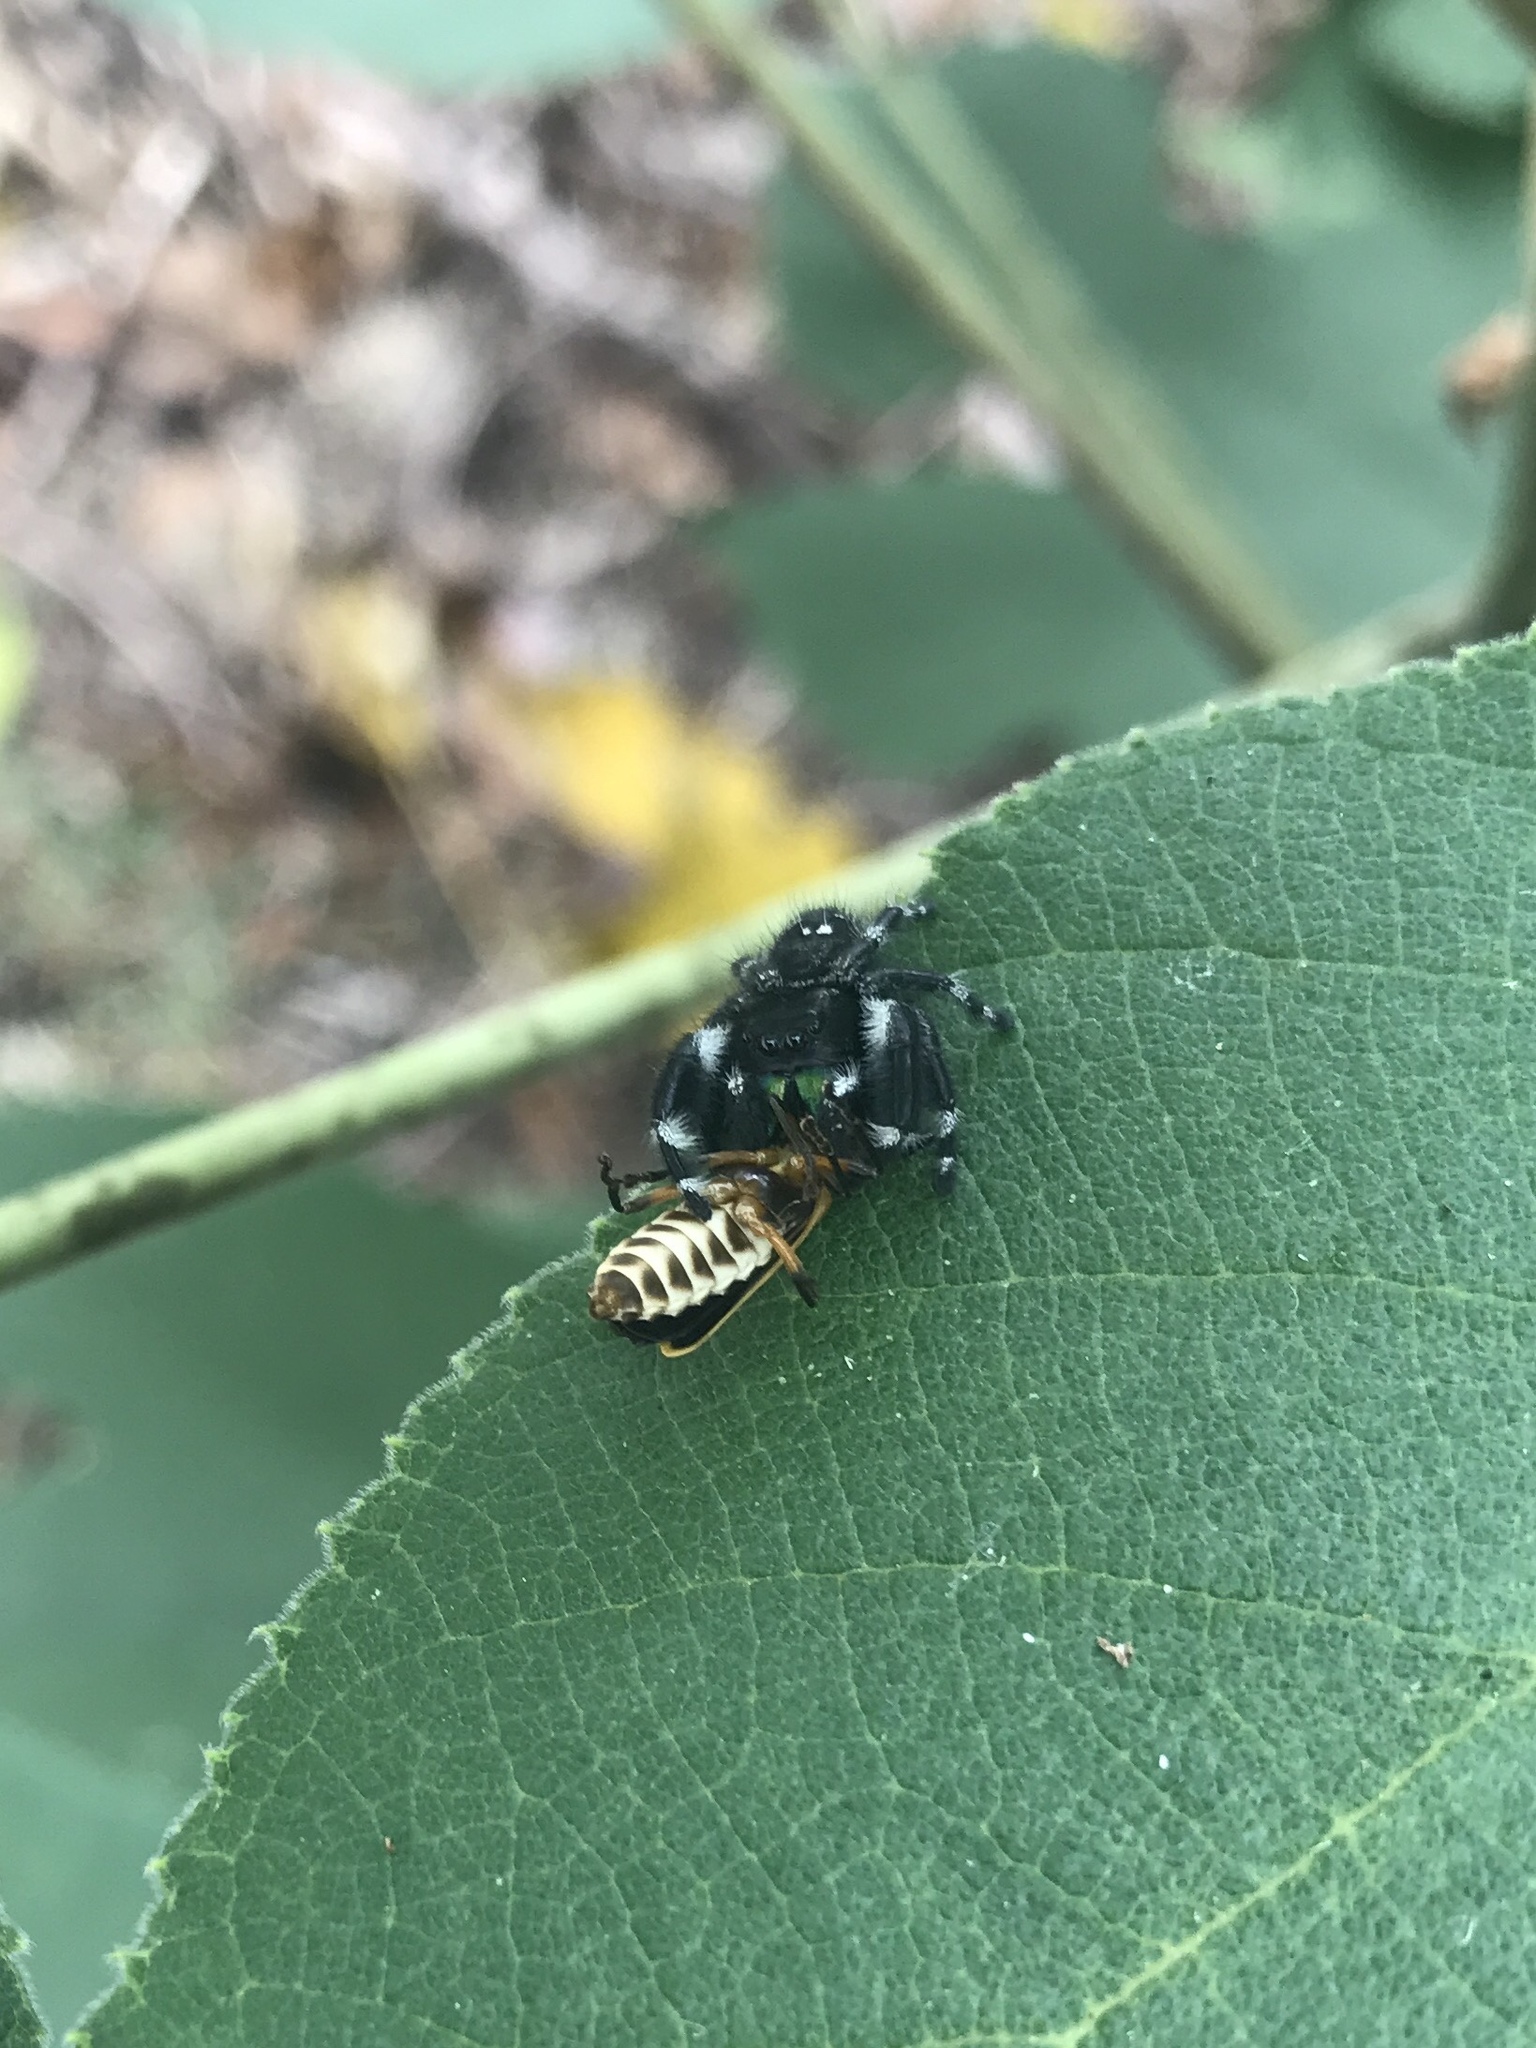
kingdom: Animalia
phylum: Arthropoda
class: Arachnida
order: Araneae
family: Salticidae
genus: Phidippus
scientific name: Phidippus audax
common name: Bold jumper
